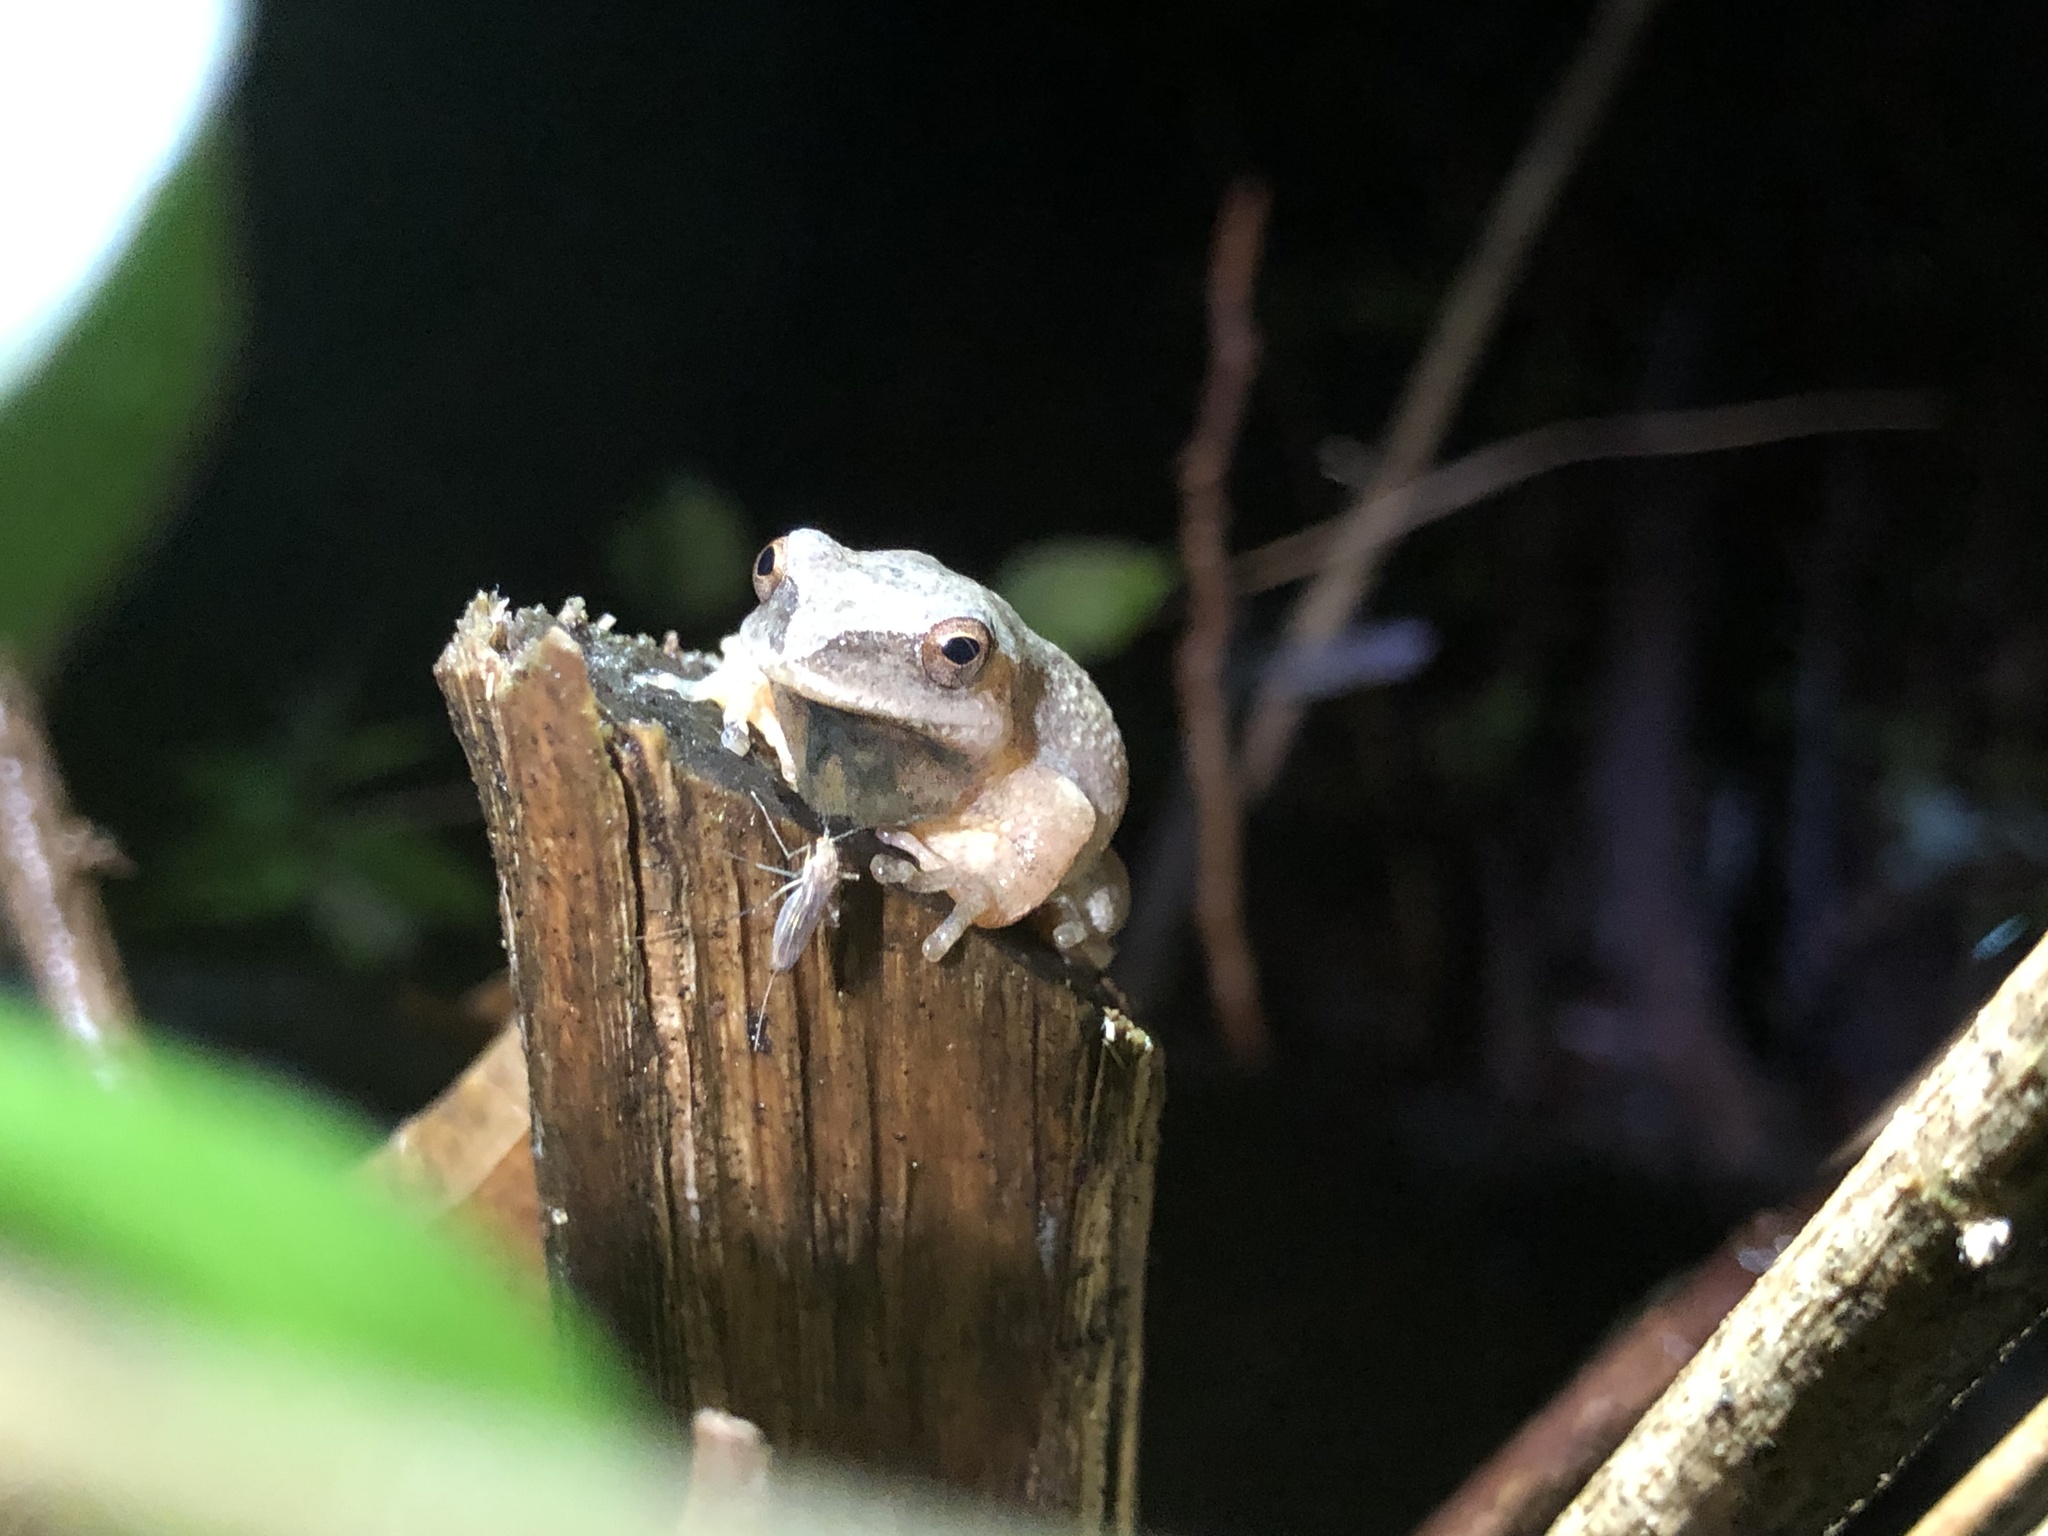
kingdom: Animalia
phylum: Chordata
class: Amphibia
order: Anura
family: Hylidae
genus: Pseudacris
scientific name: Pseudacris crucifer
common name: Spring peeper
